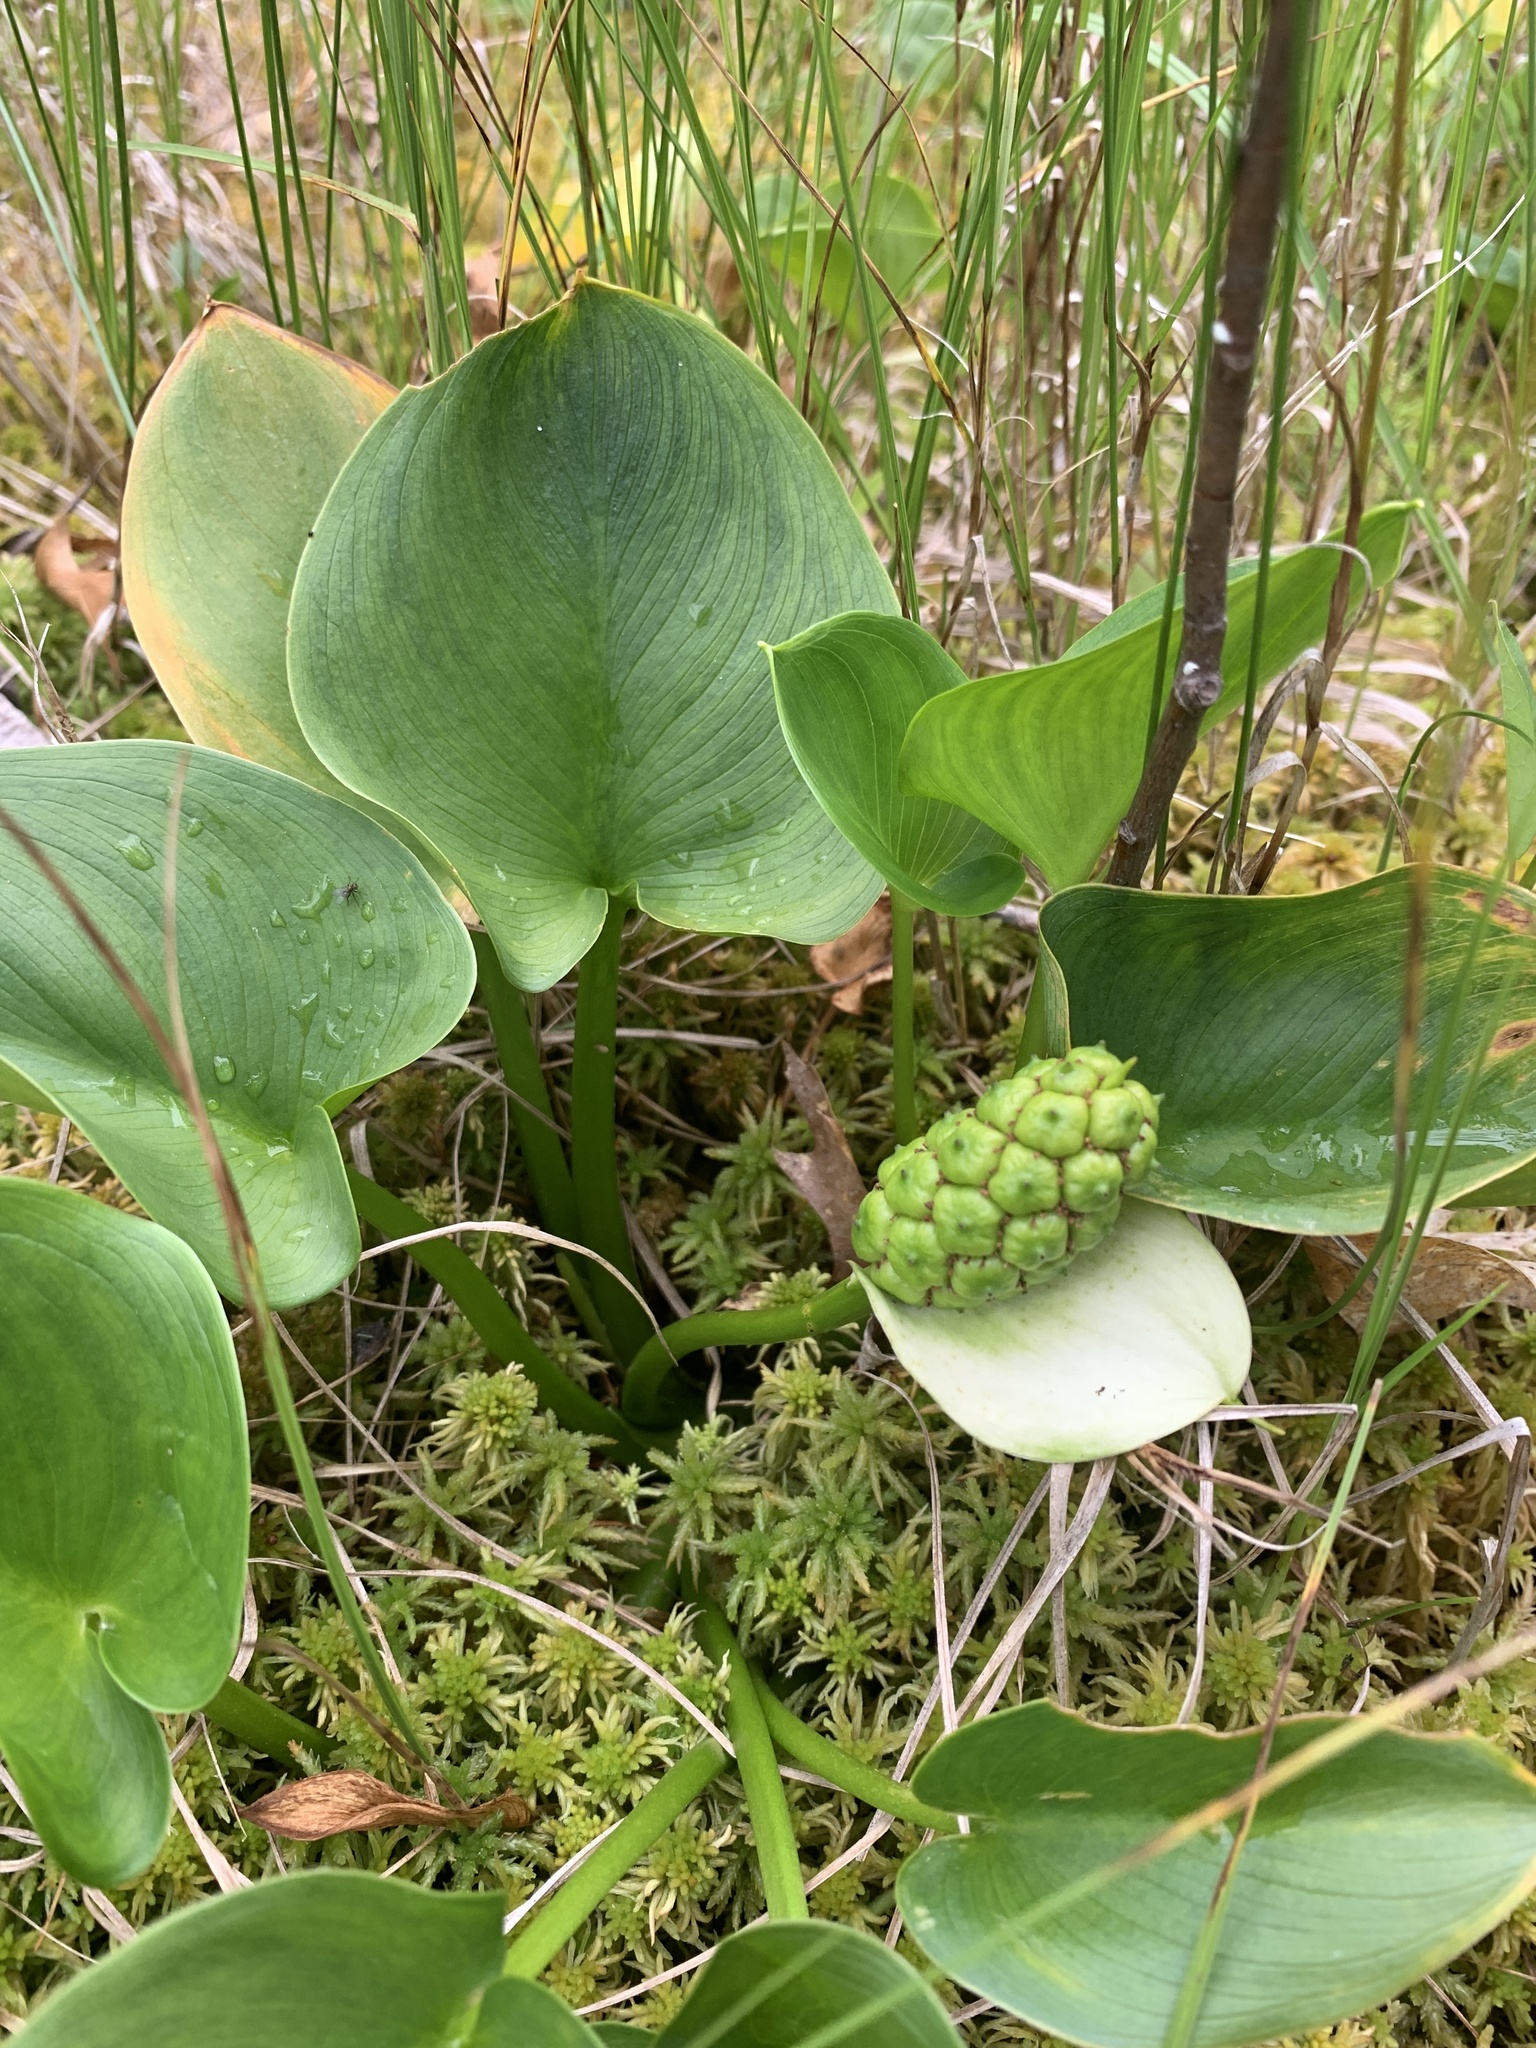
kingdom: Plantae
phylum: Tracheophyta
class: Liliopsida
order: Alismatales
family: Araceae
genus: Calla
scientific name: Calla palustris
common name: Bog arum
